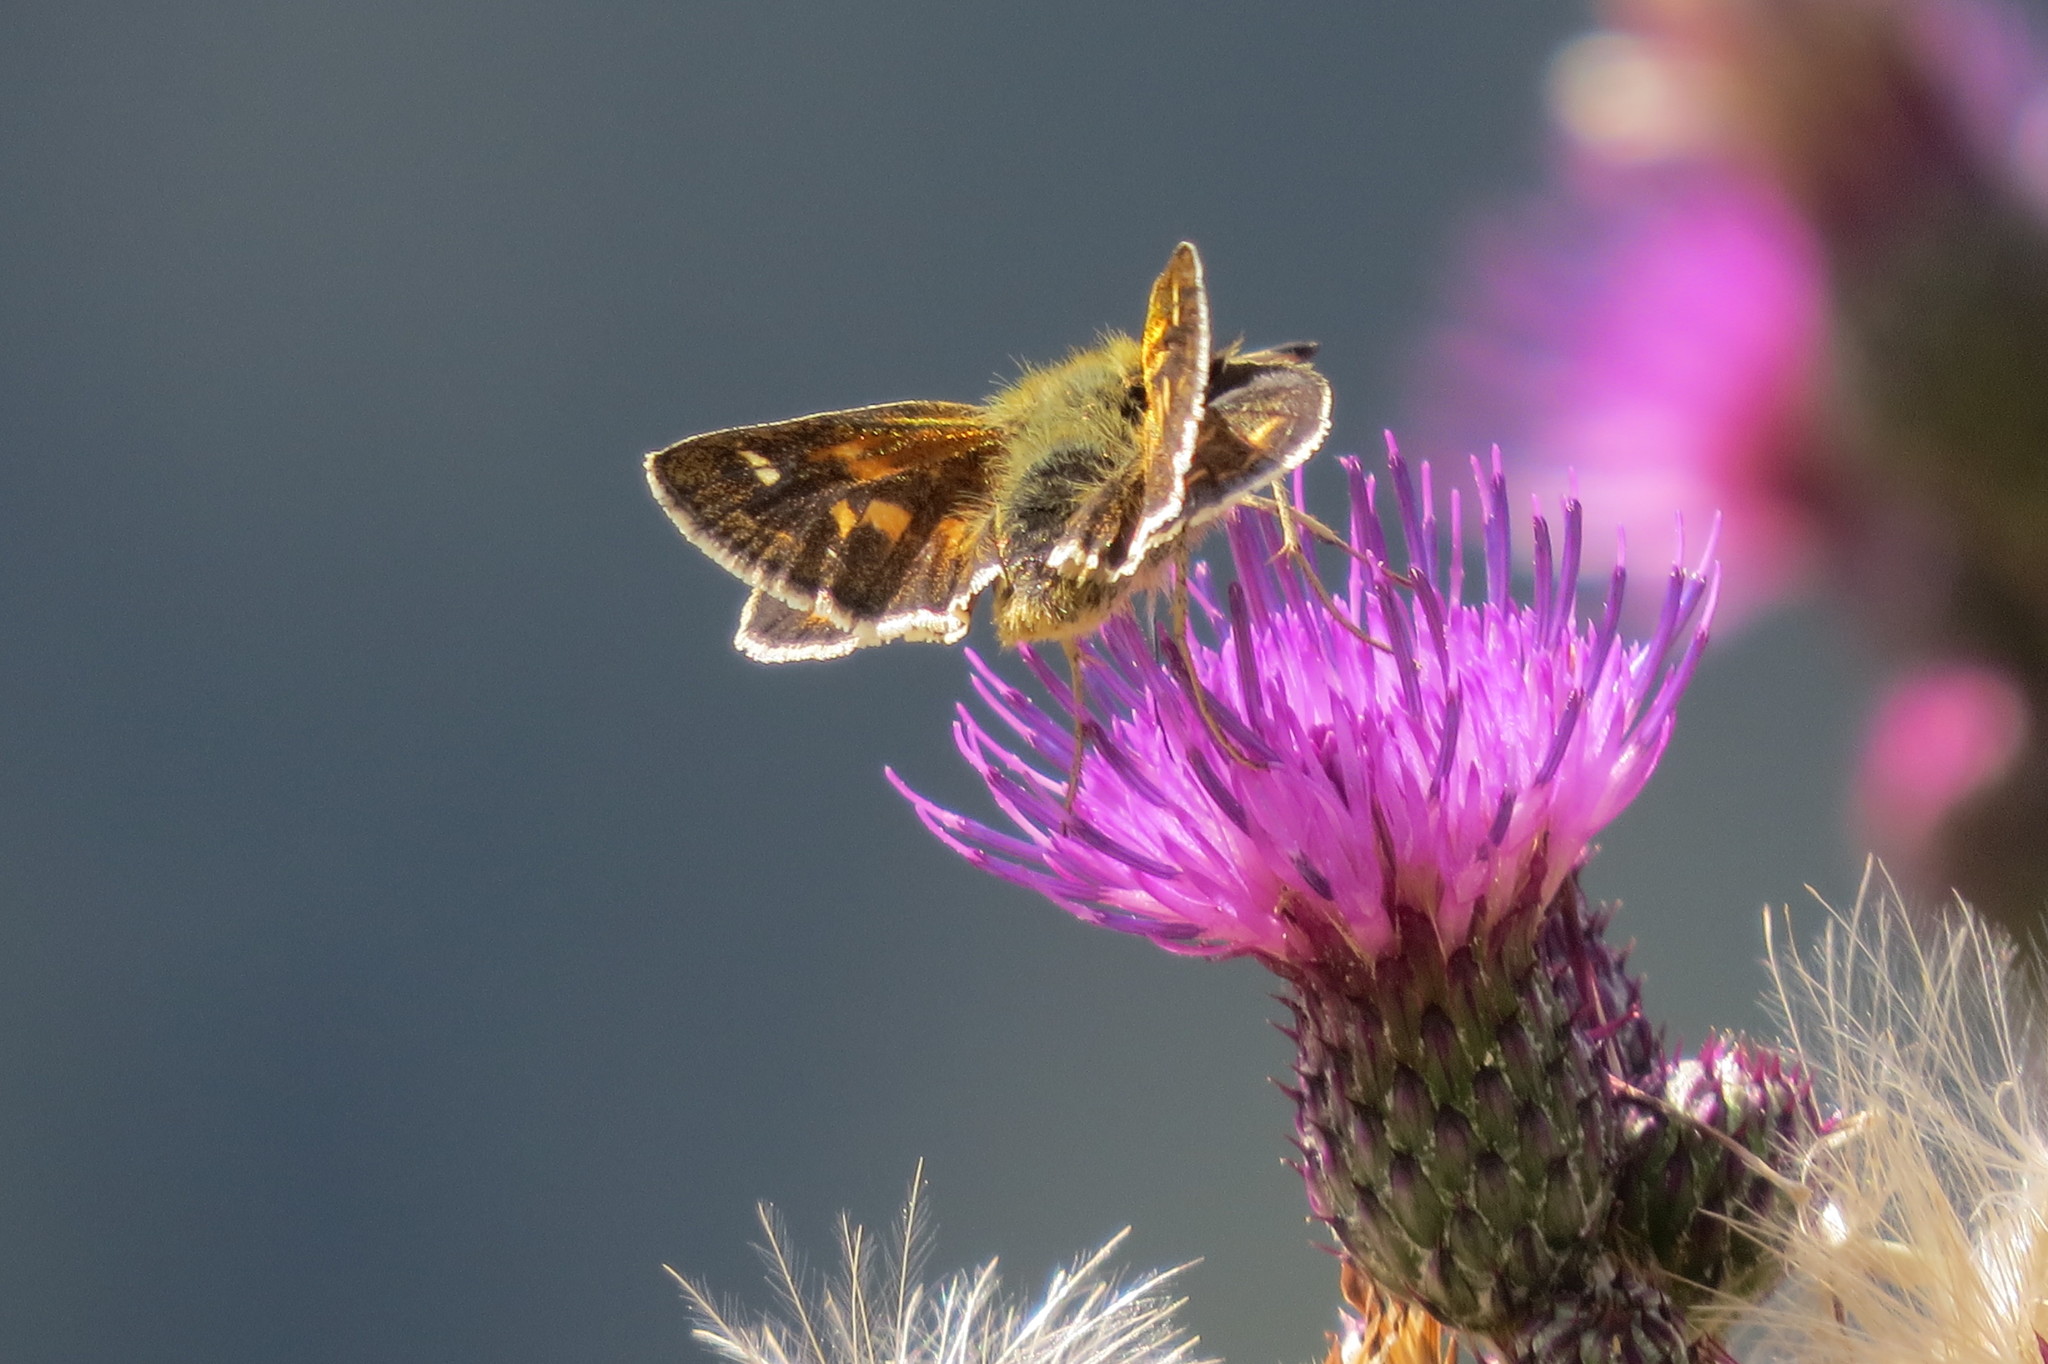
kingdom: Animalia
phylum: Arthropoda
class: Insecta
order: Lepidoptera
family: Hesperiidae
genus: Hesperia
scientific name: Hesperia comma
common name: Common branded skipper
